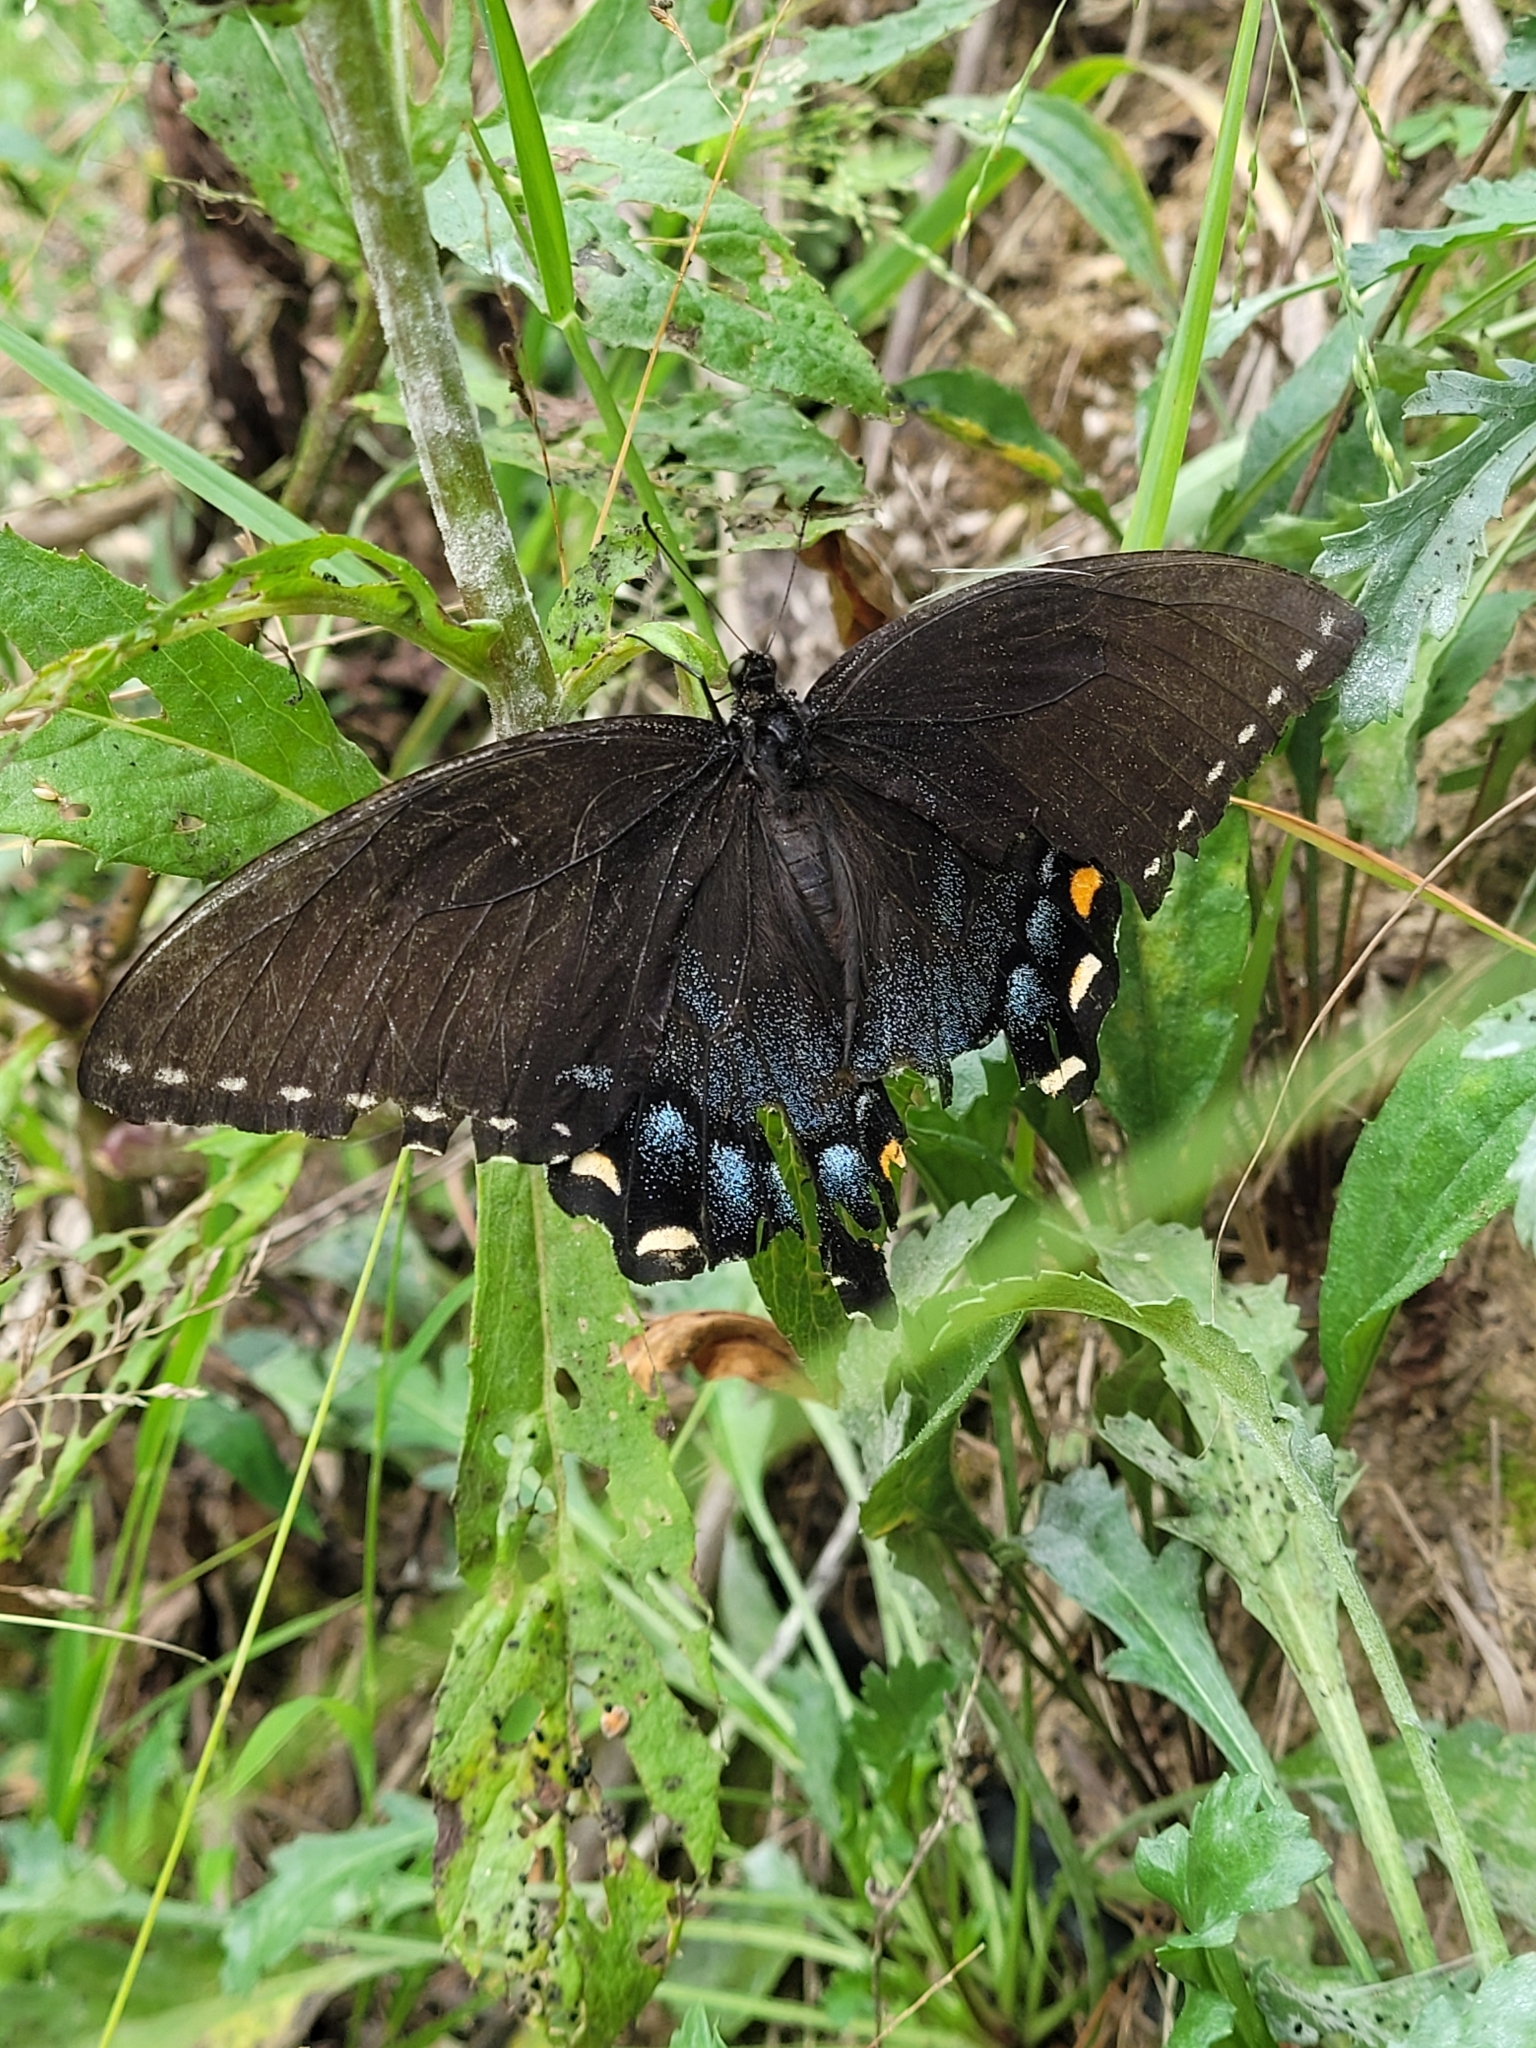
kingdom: Animalia
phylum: Arthropoda
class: Insecta
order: Lepidoptera
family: Papilionidae
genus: Papilio
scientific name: Papilio glaucus
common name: Tiger swallowtail
